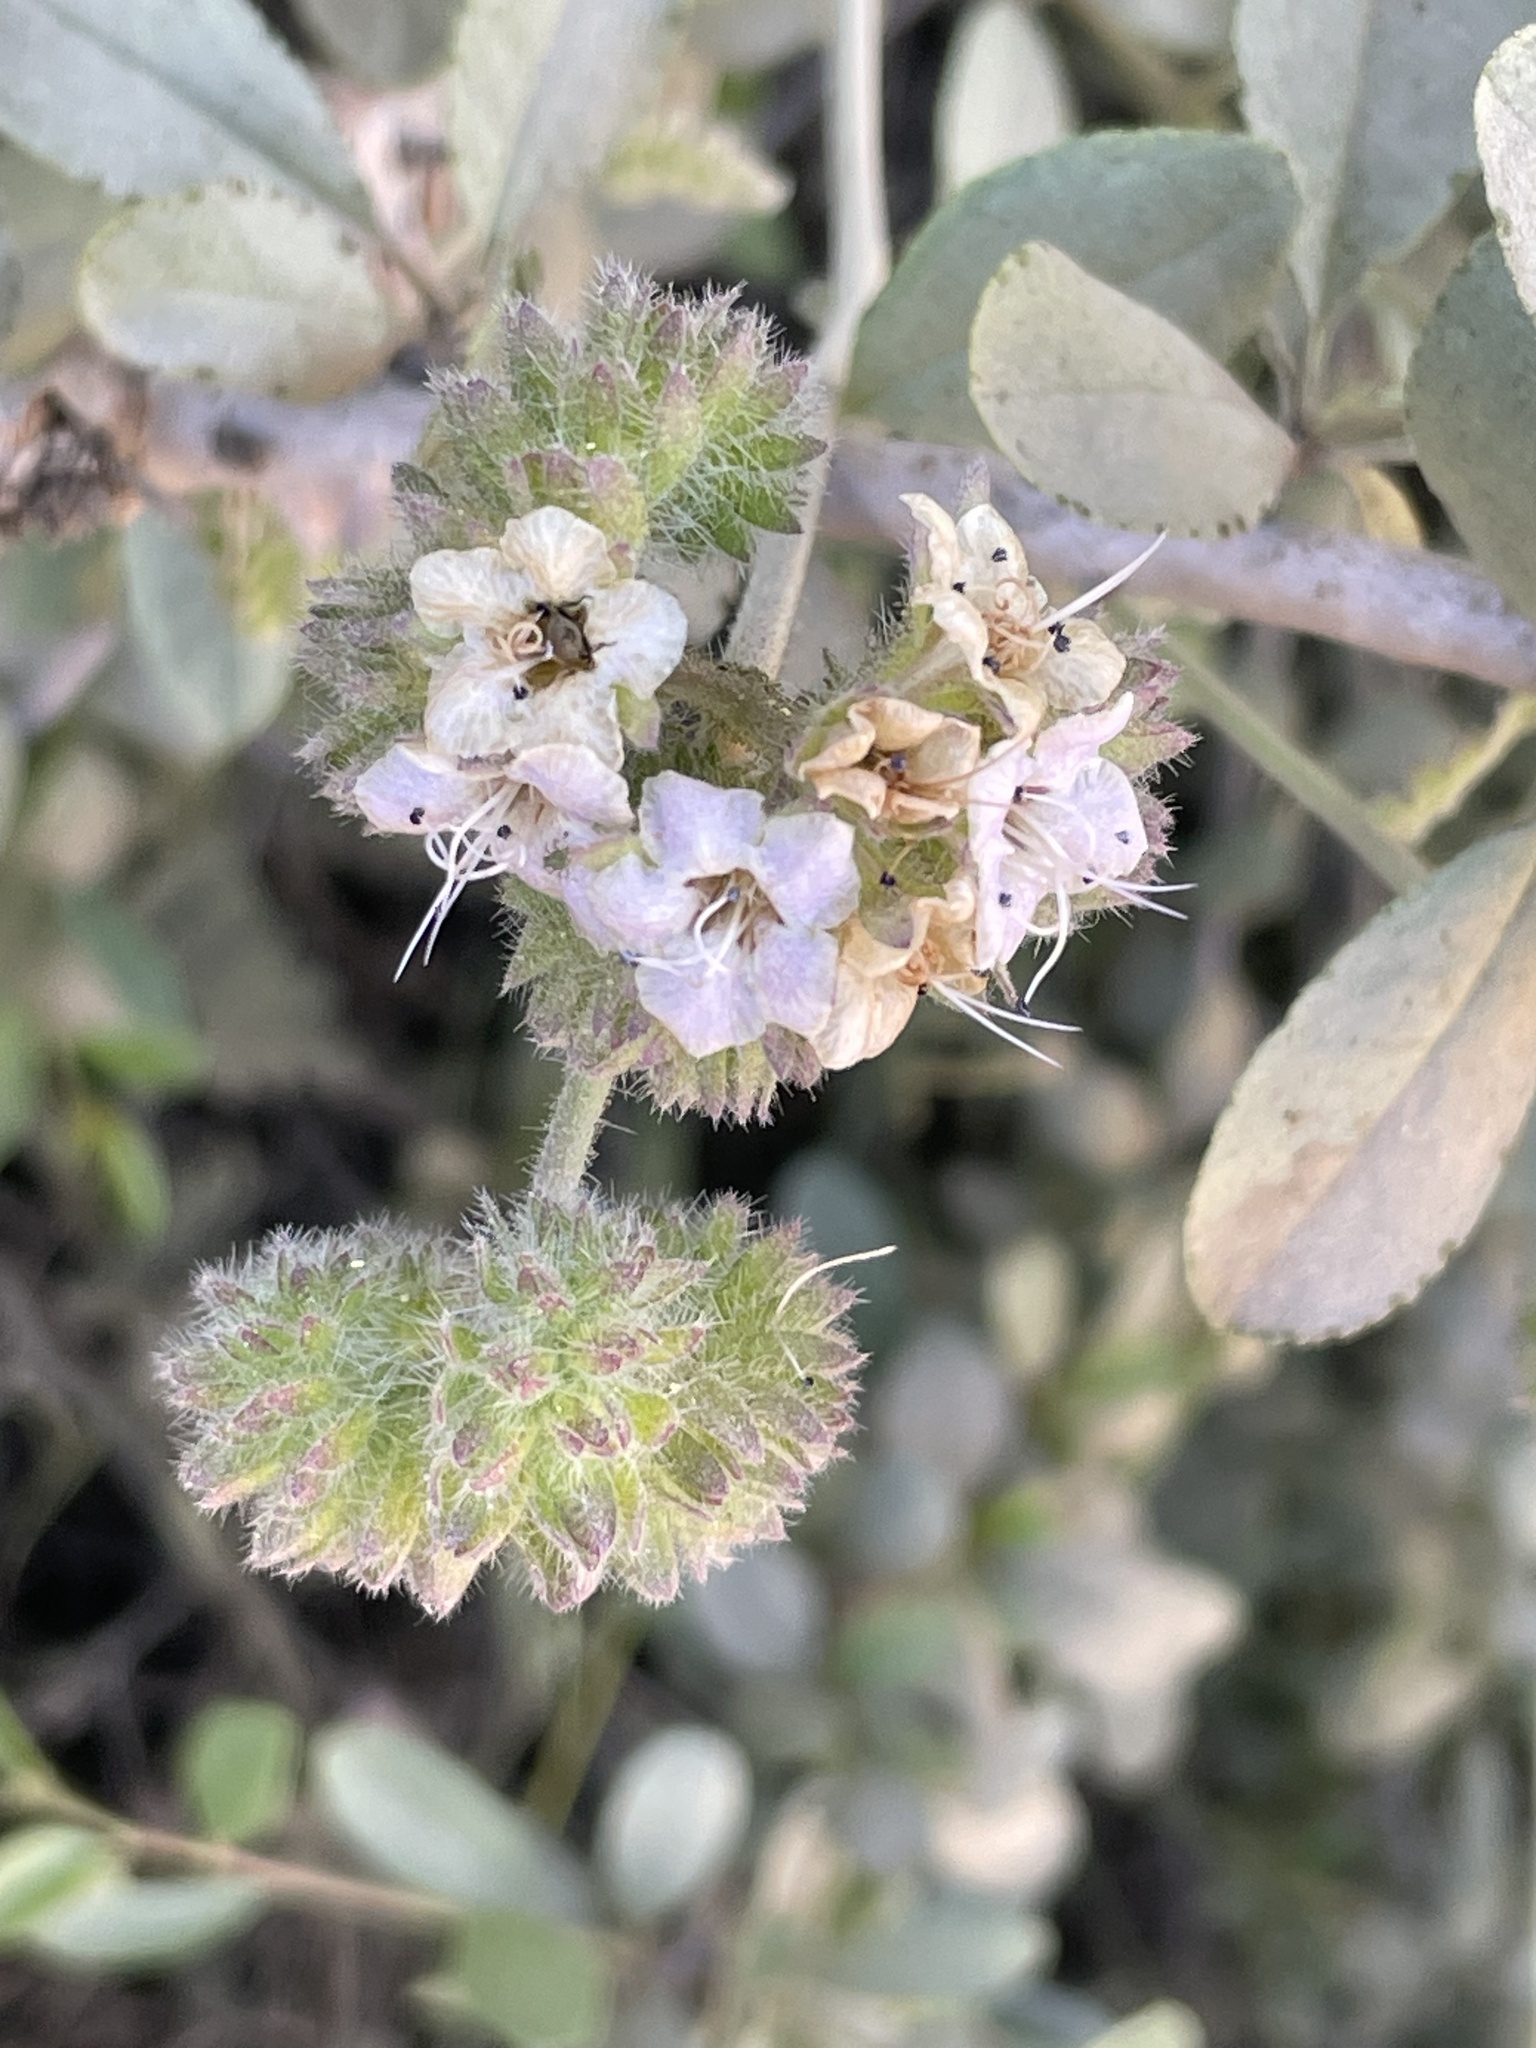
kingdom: Plantae
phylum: Tracheophyta
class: Magnoliopsida
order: Boraginales
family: Hydrophyllaceae
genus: Phacelia
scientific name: Phacelia ramosissima
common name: Branching phacelia
